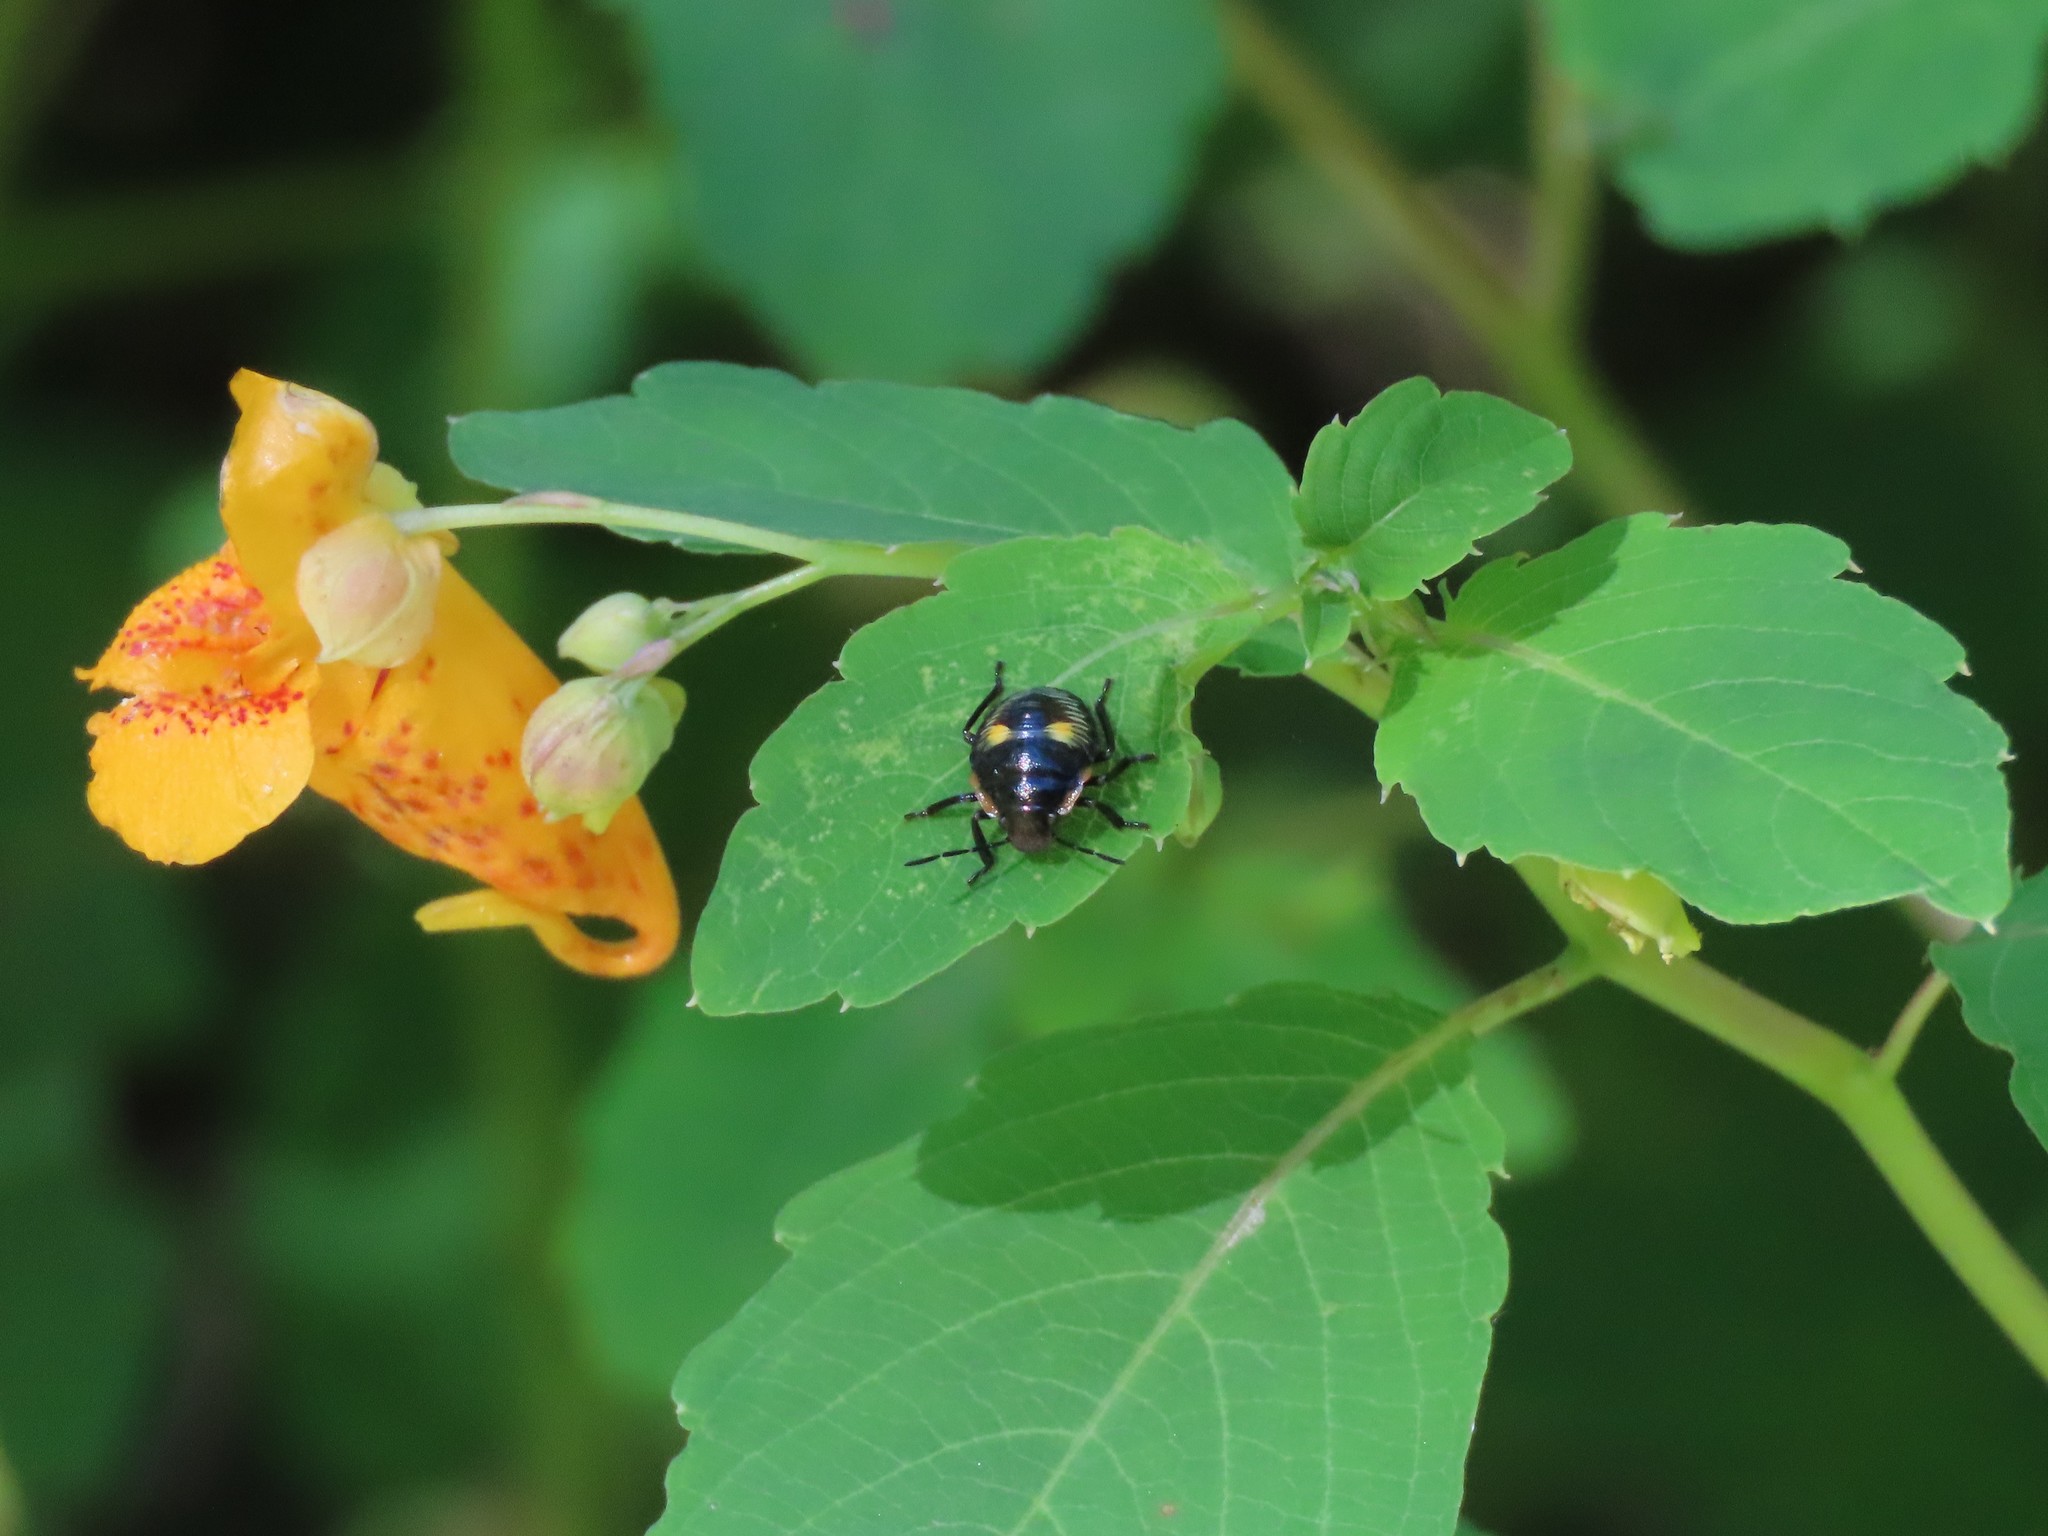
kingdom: Animalia
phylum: Arthropoda
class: Insecta
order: Hemiptera
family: Pentatomidae
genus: Chinavia
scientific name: Chinavia hilaris
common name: Green stink bug
